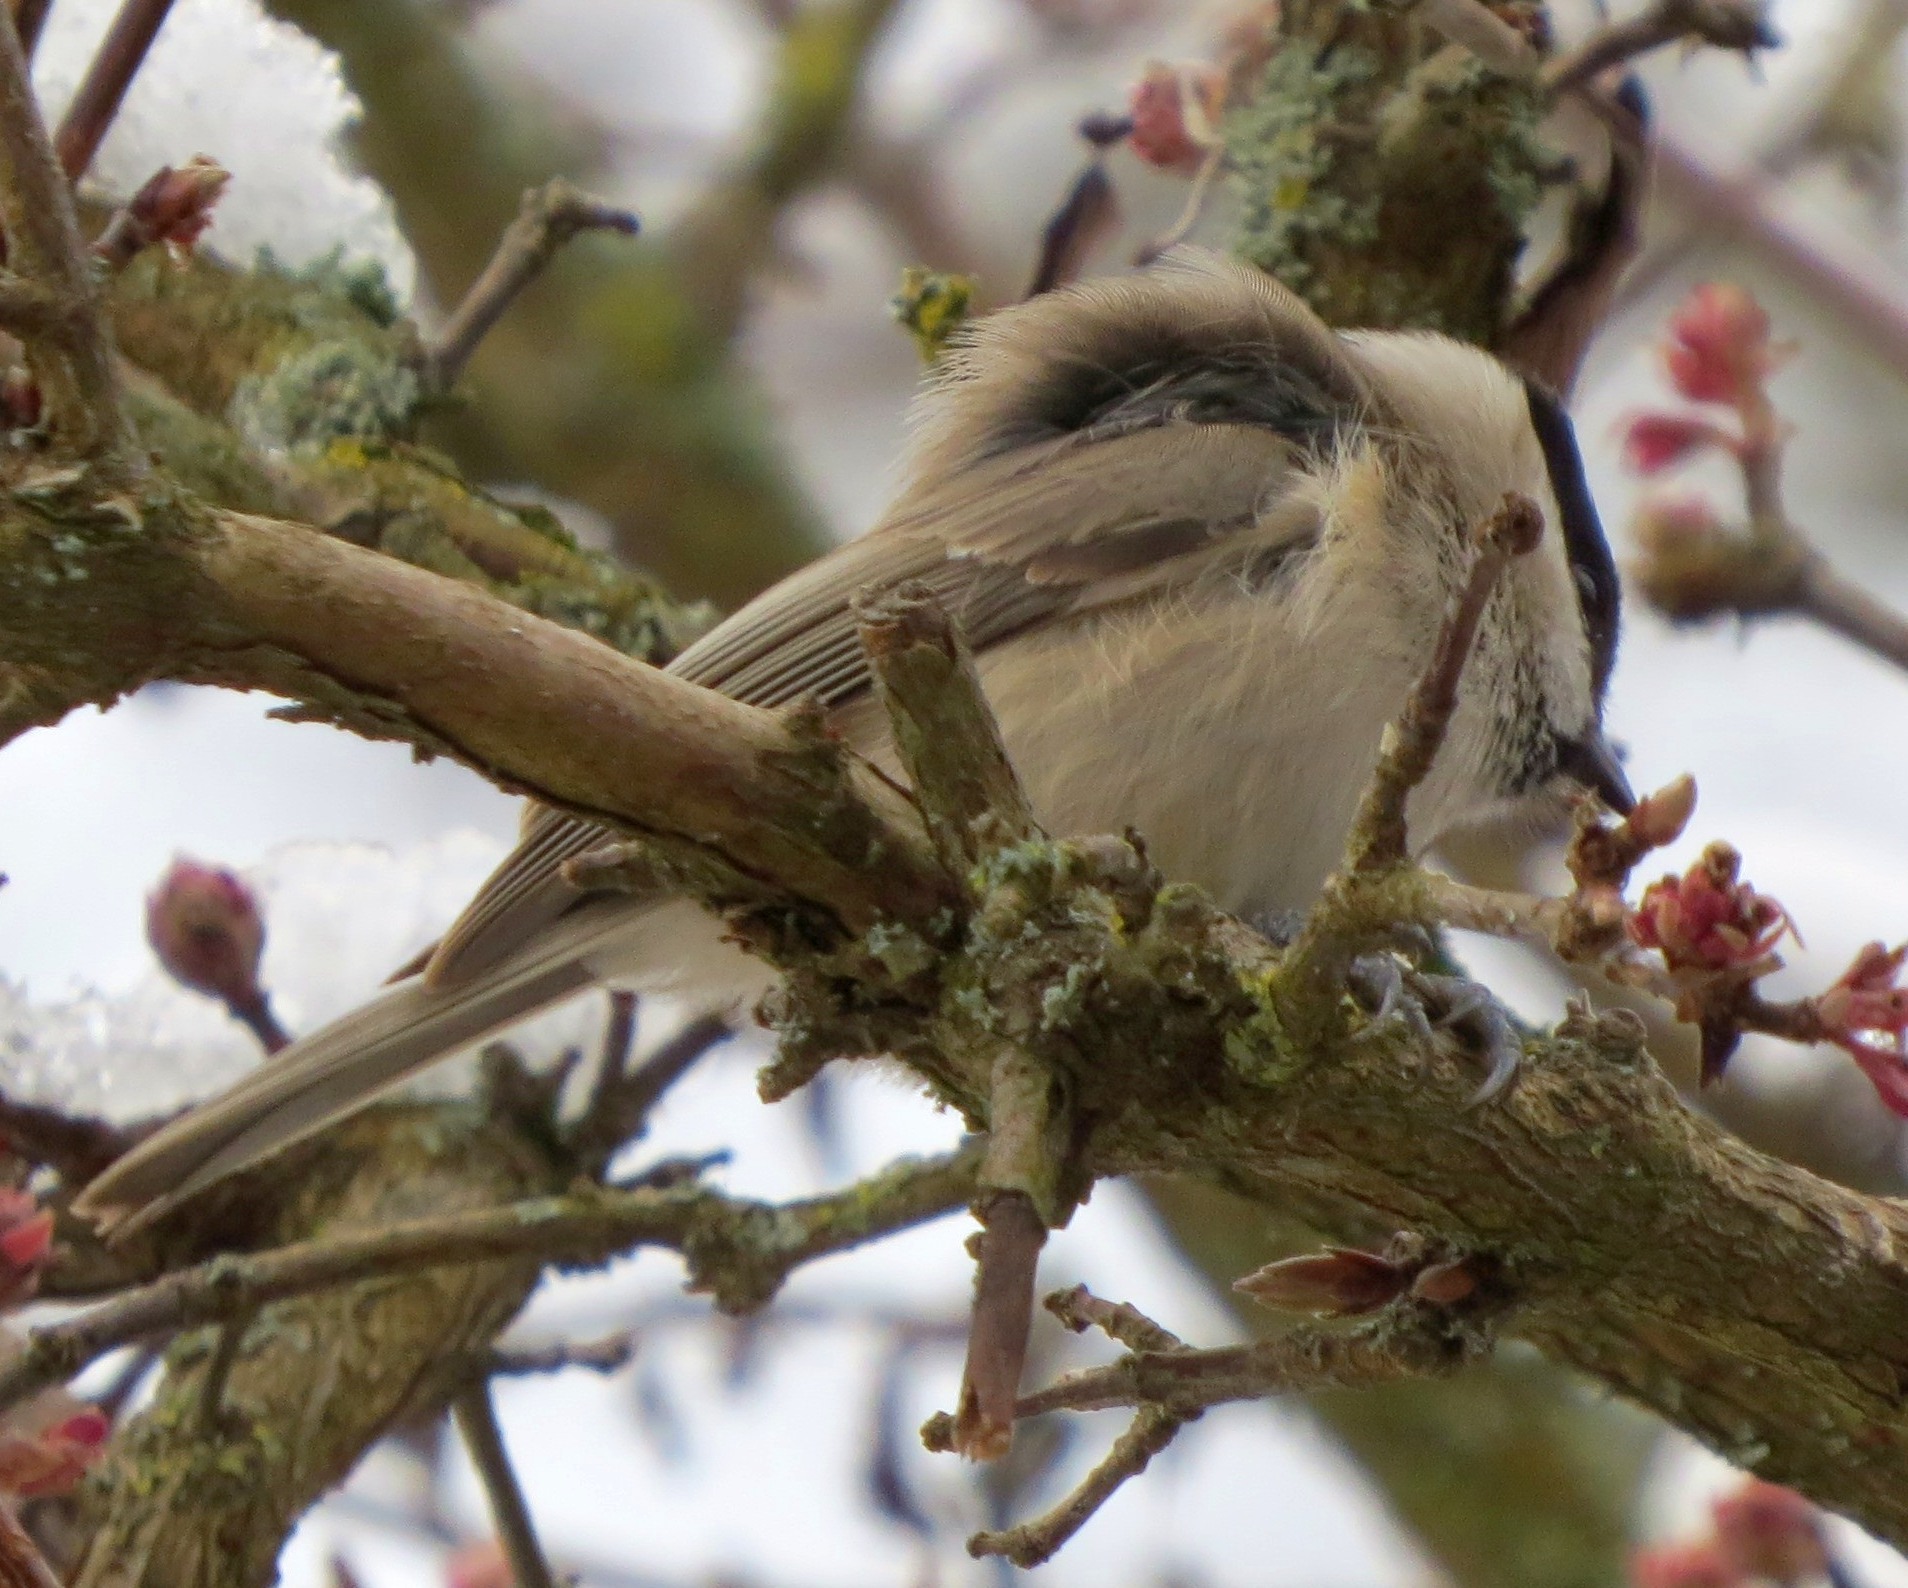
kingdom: Animalia
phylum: Chordata
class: Aves
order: Passeriformes
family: Paridae
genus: Poecile
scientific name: Poecile palustris
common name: Marsh tit
